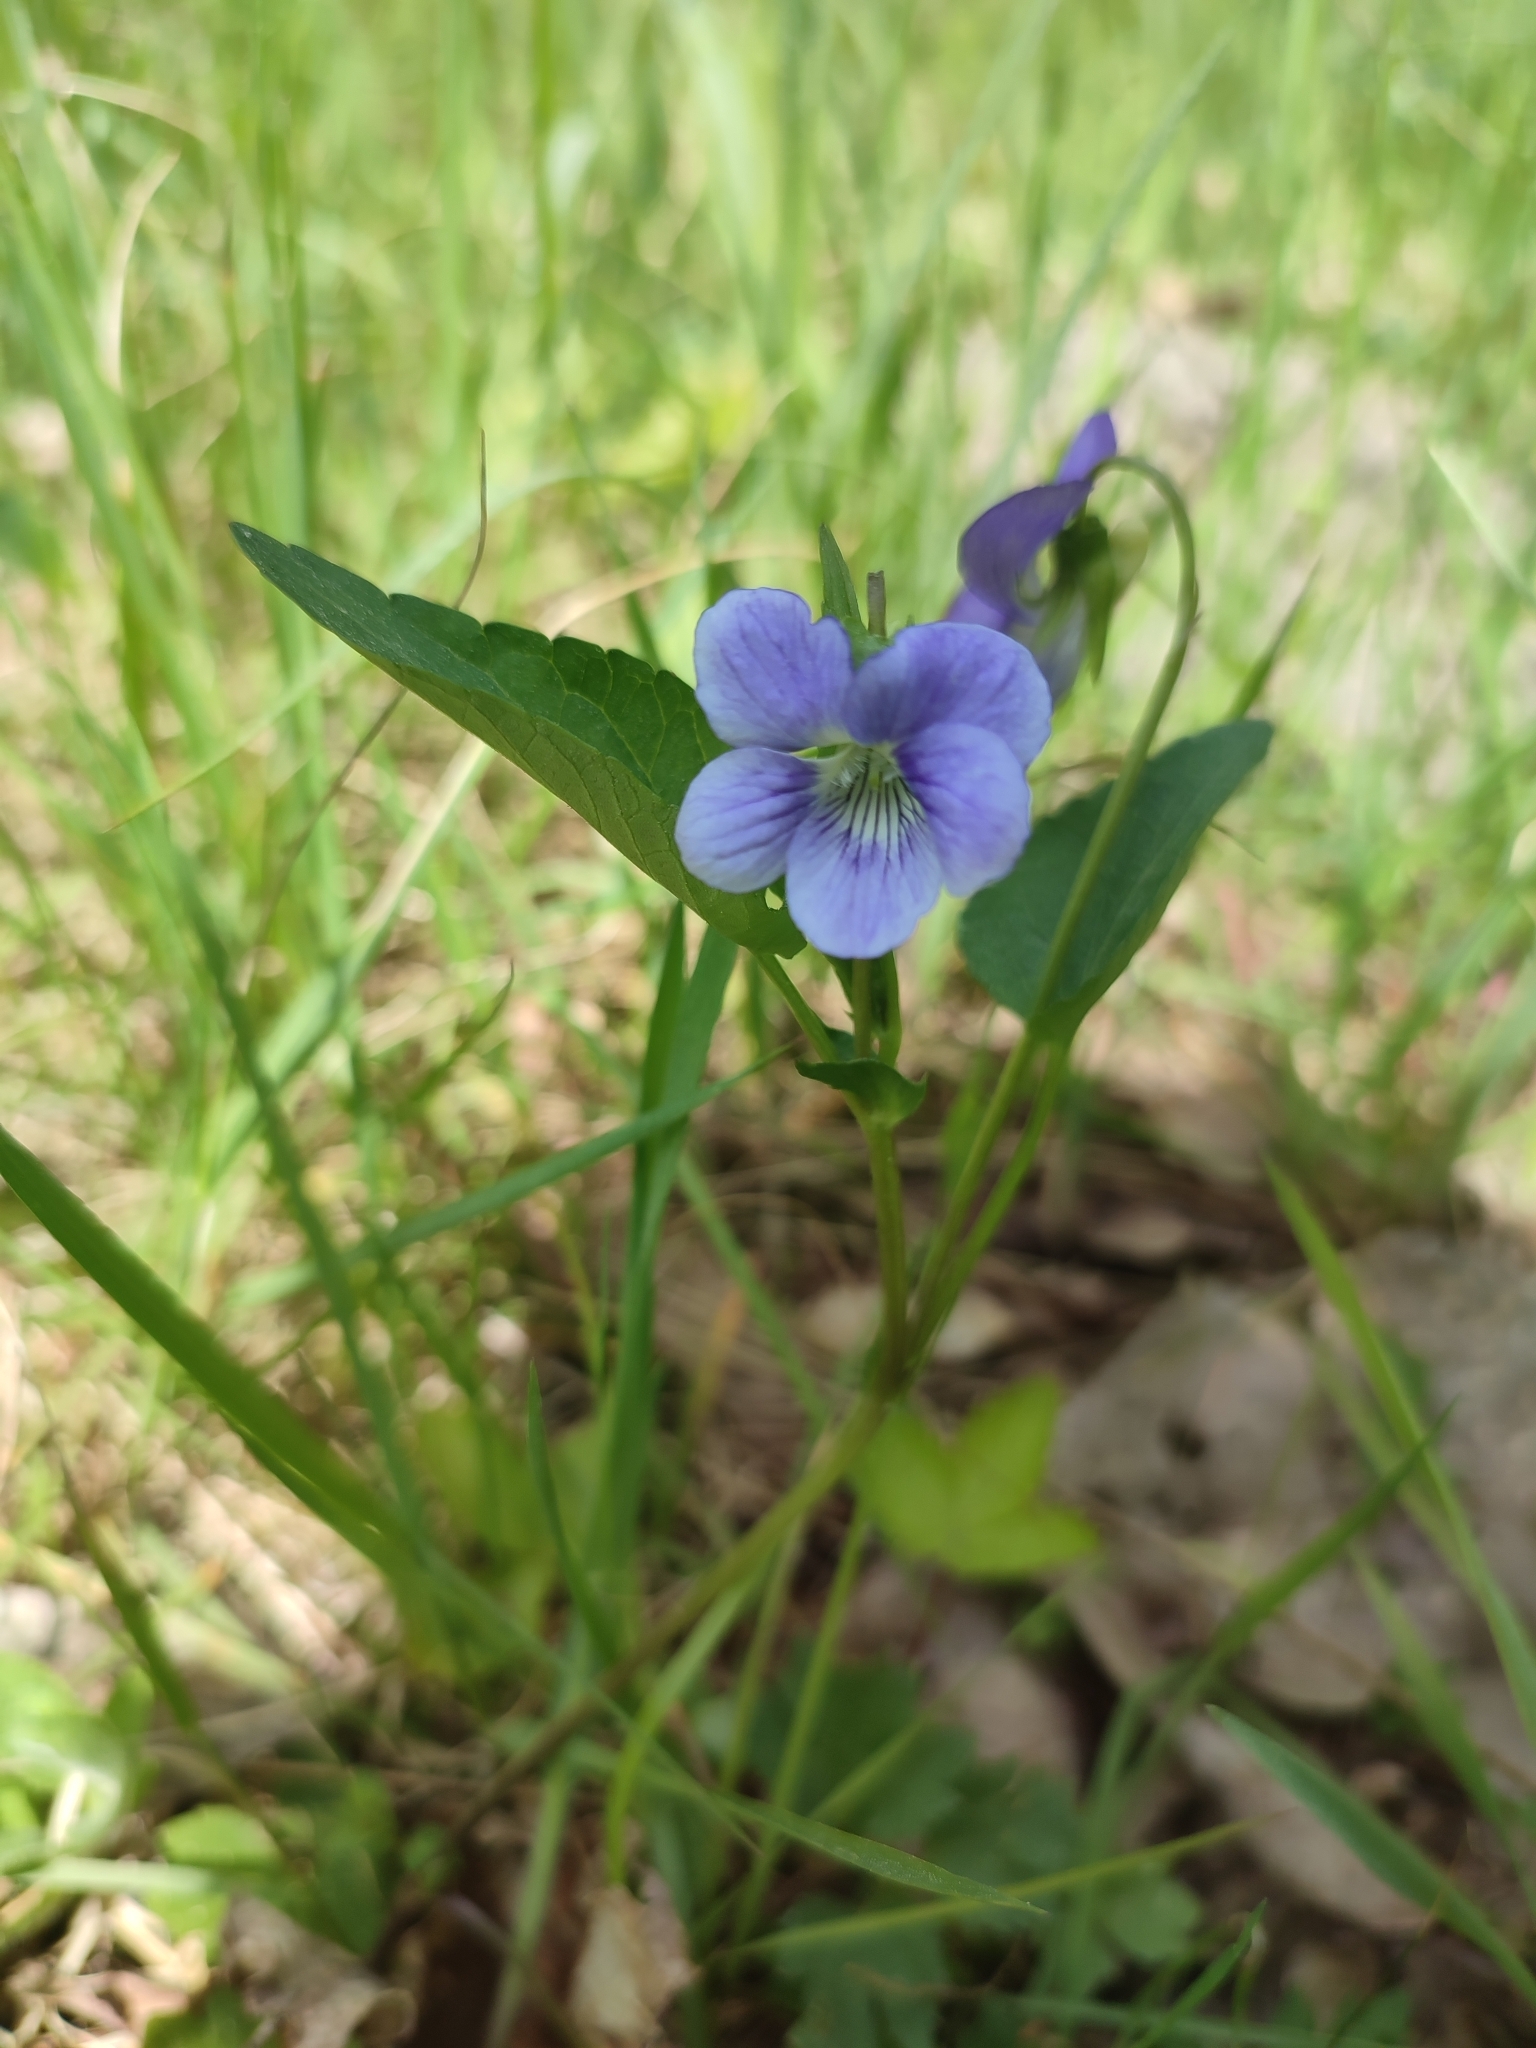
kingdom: Plantae
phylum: Tracheophyta
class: Magnoliopsida
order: Malpighiales
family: Violaceae
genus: Viola
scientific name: Viola
